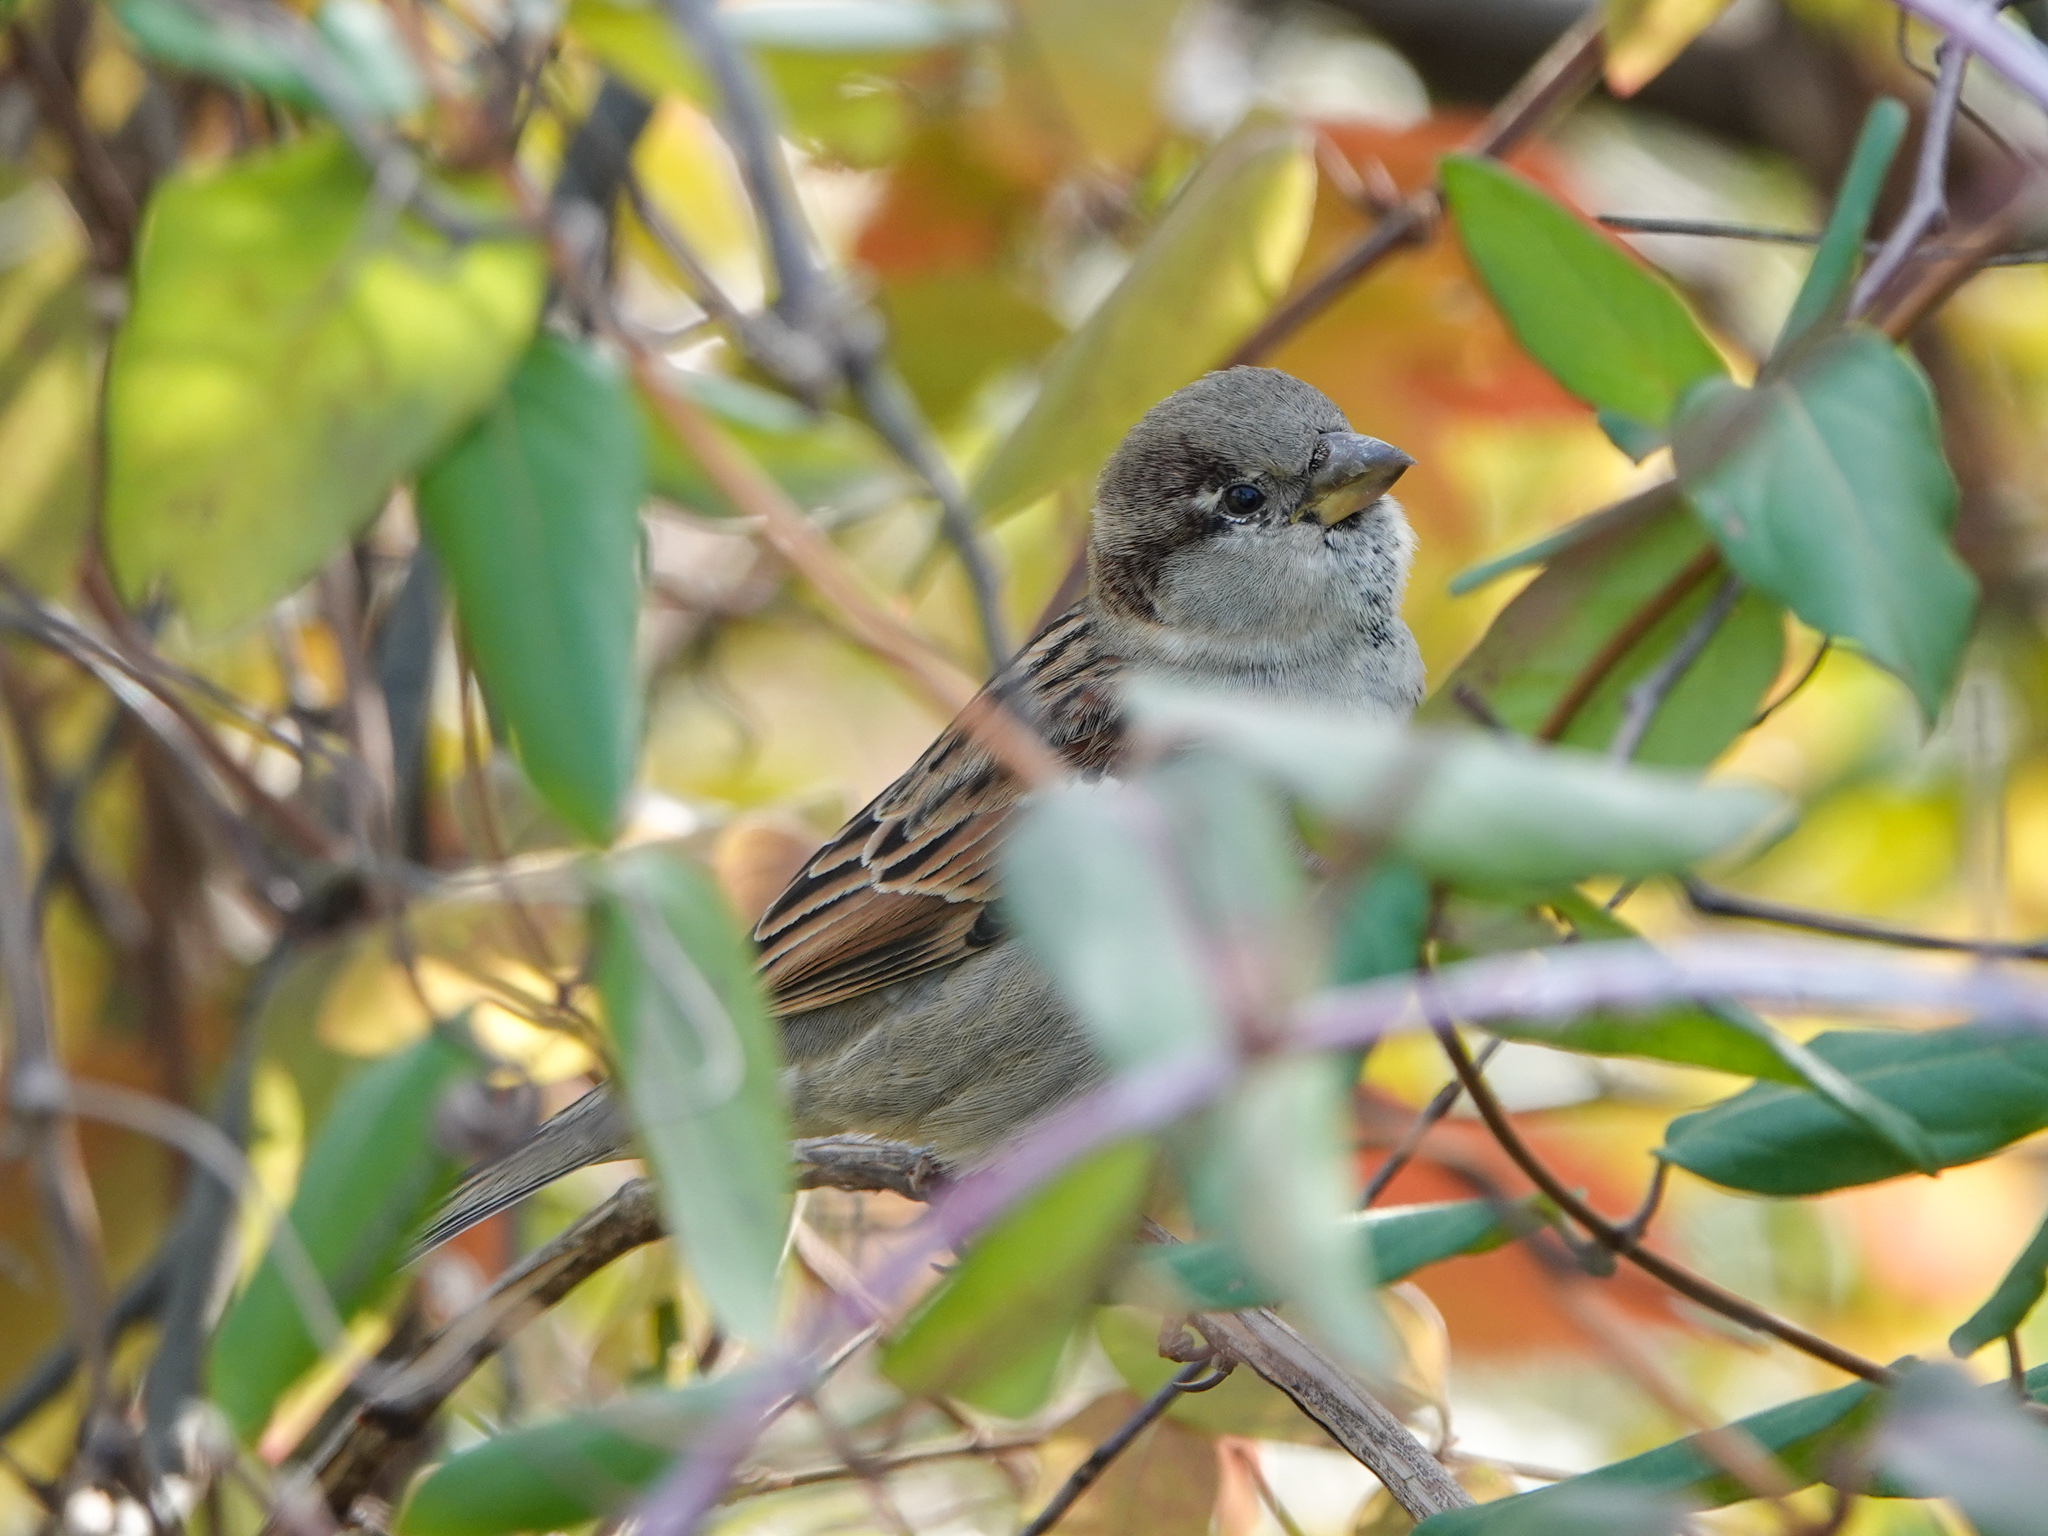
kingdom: Animalia
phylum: Chordata
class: Aves
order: Passeriformes
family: Passeridae
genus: Passer
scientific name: Passer domesticus
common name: House sparrow
